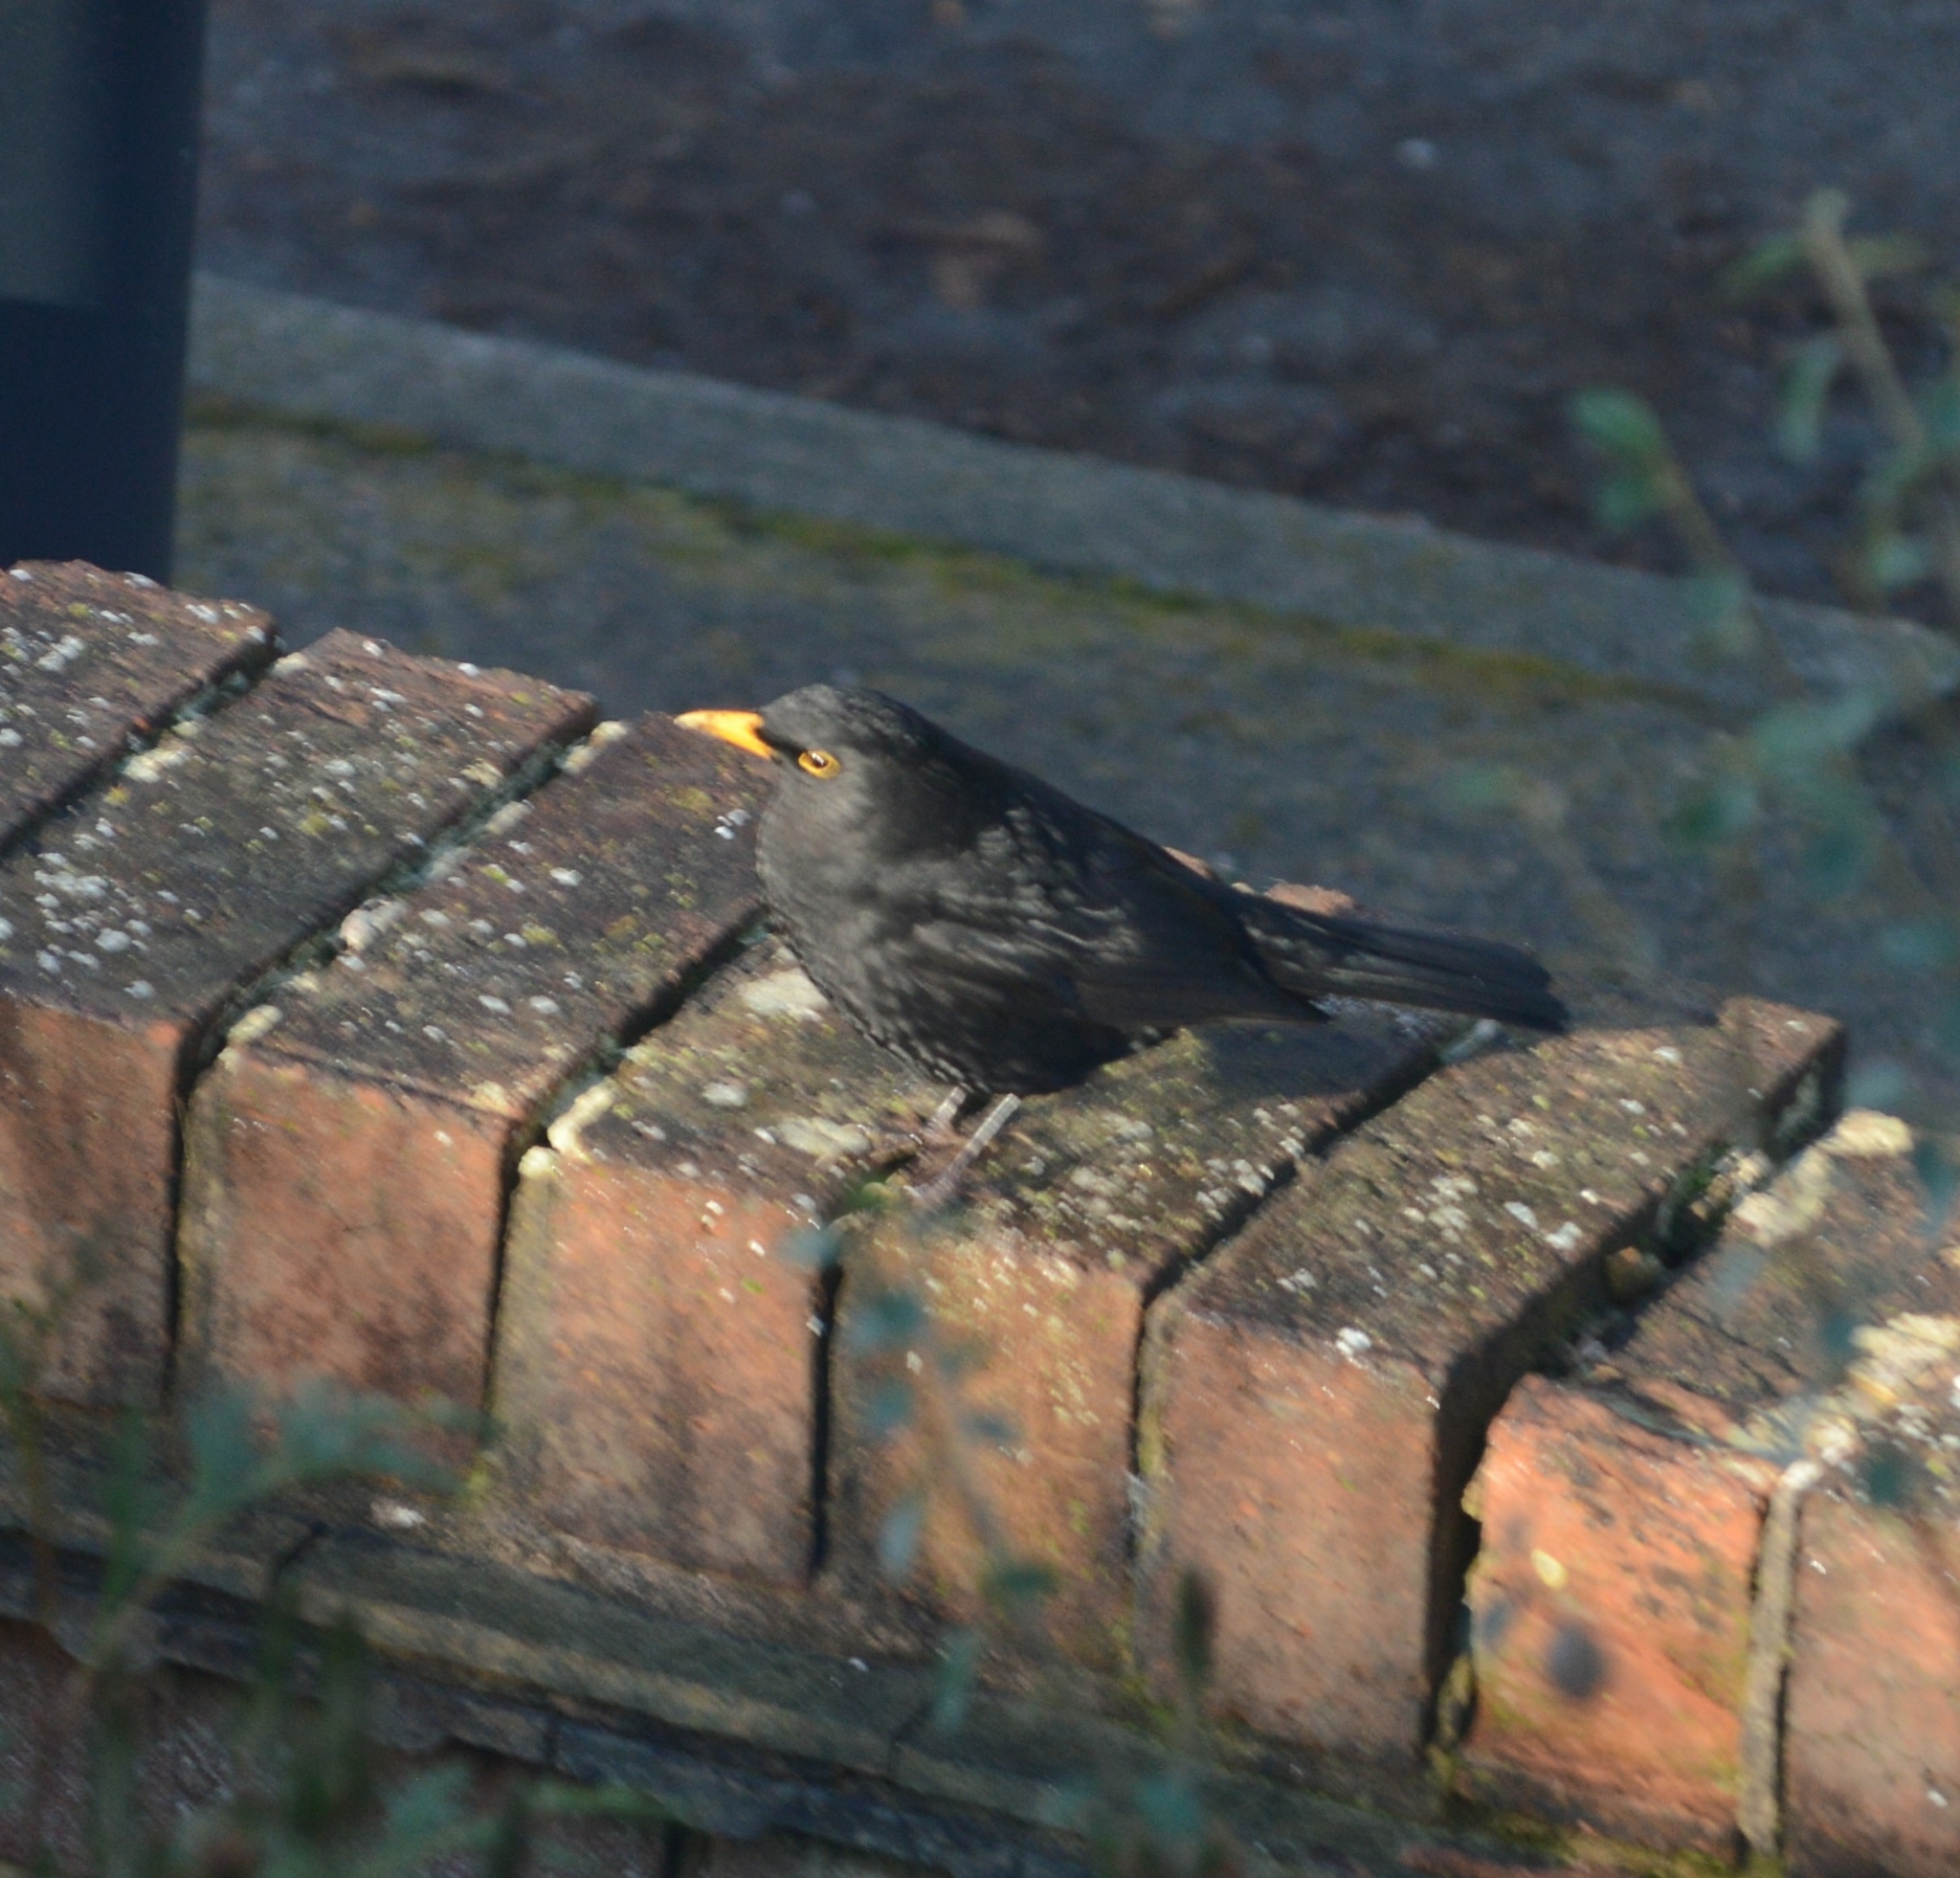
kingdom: Animalia
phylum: Chordata
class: Aves
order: Passeriformes
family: Turdidae
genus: Turdus
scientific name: Turdus merula
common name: Common blackbird
